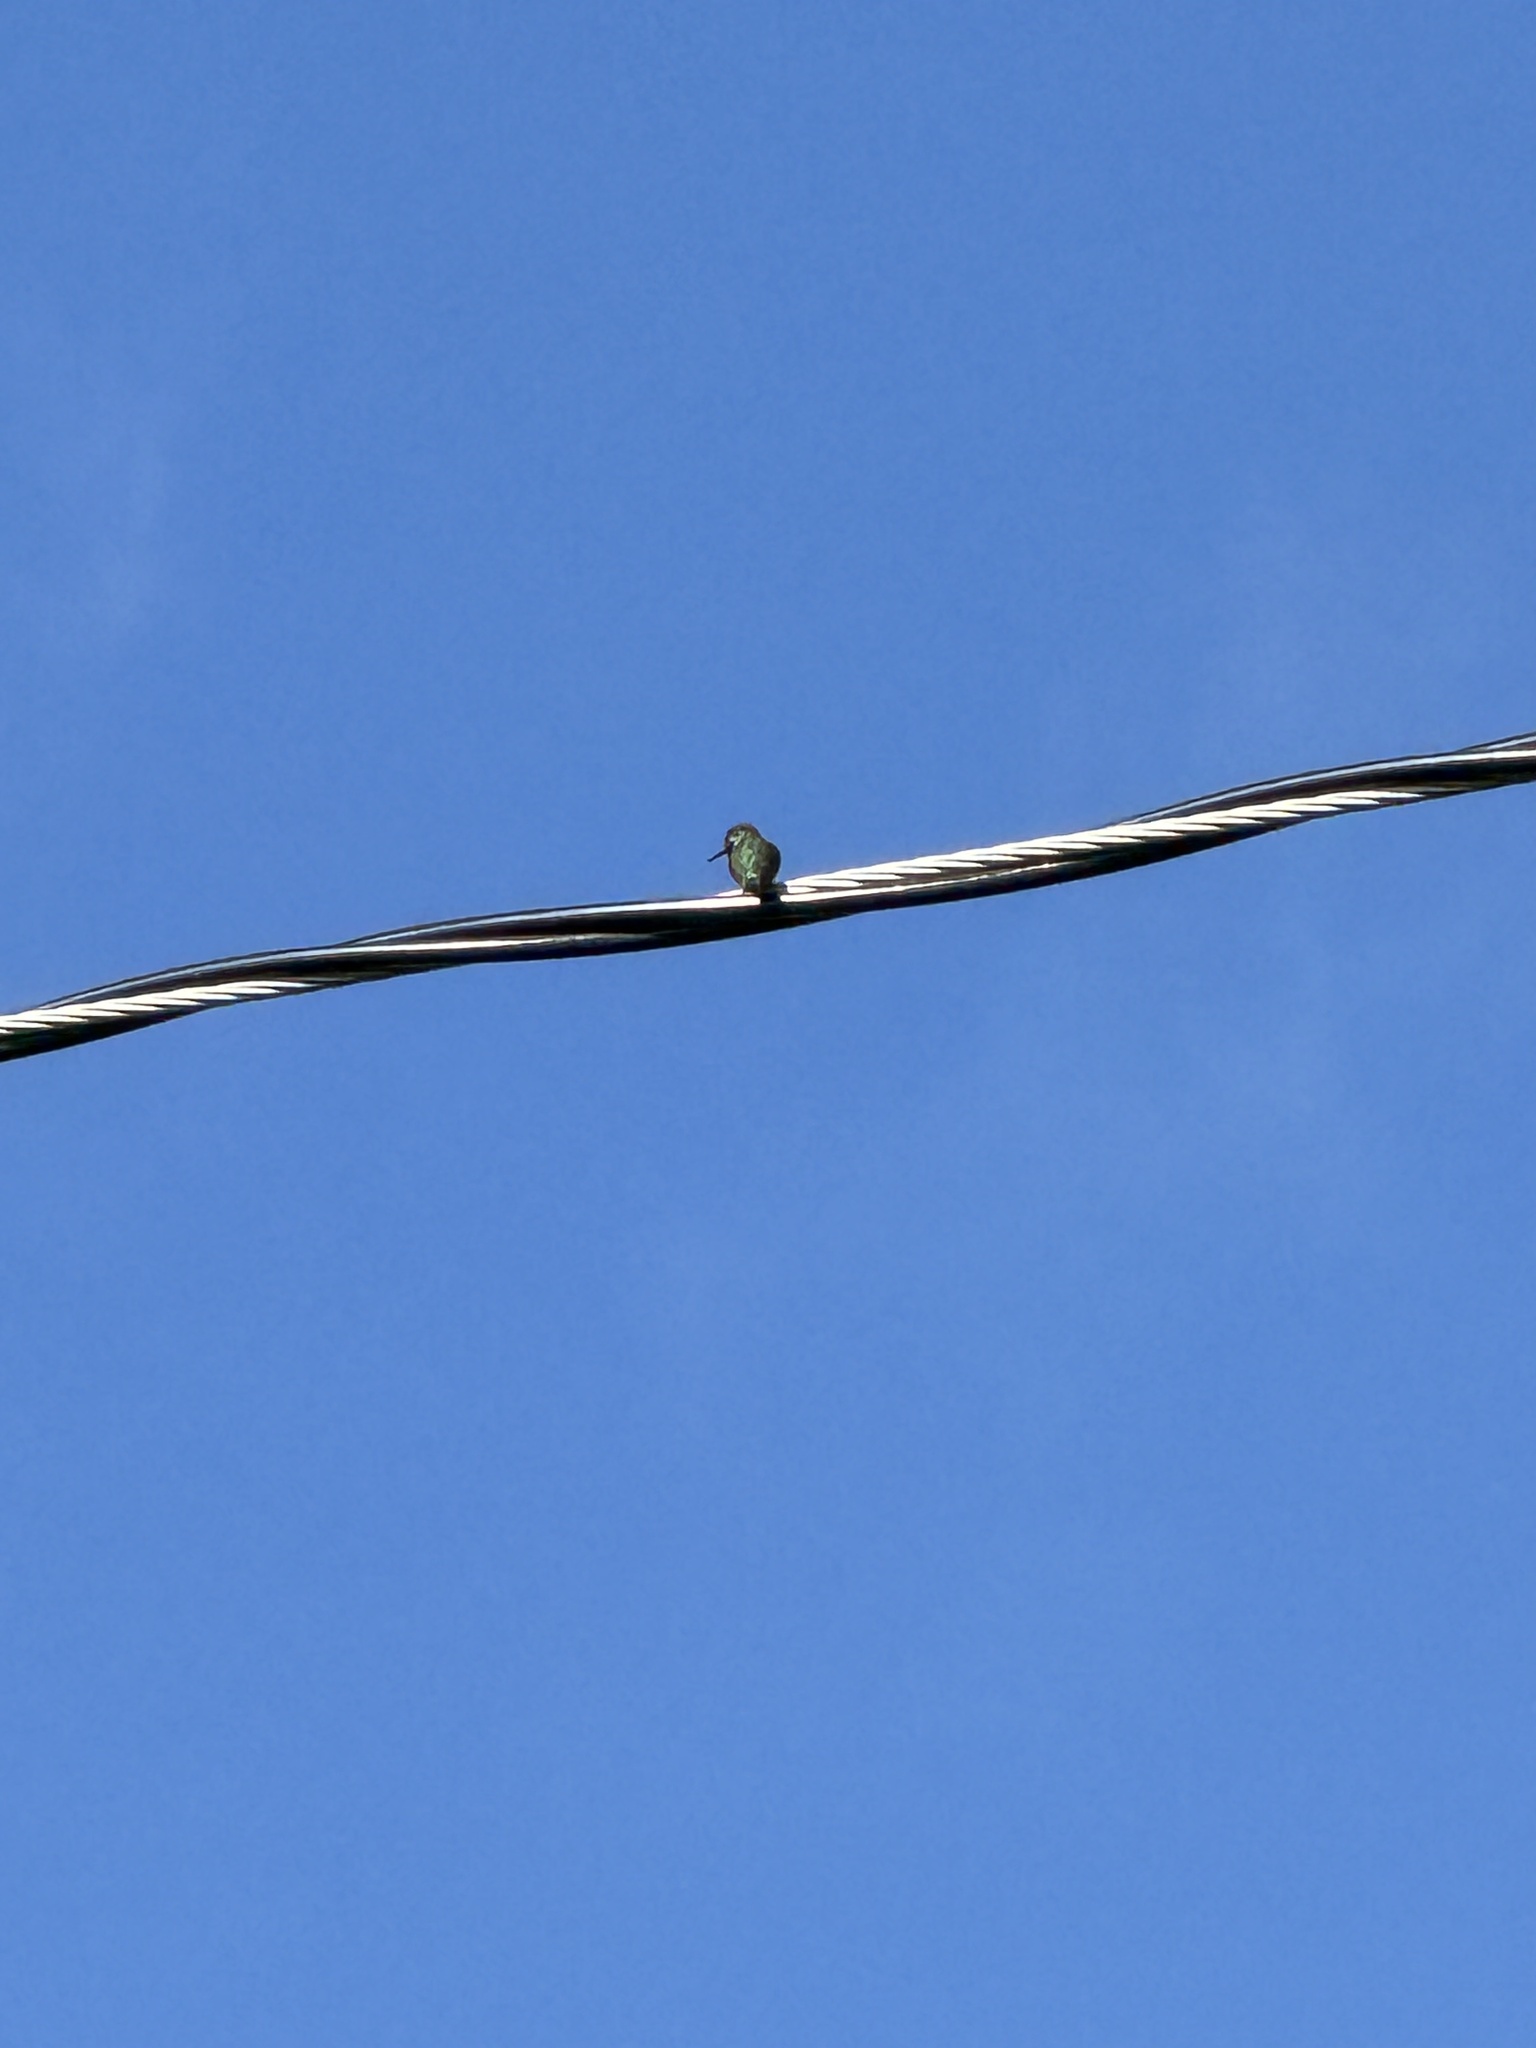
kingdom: Animalia
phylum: Chordata
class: Aves
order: Apodiformes
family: Trochilidae
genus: Calypte
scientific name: Calypte anna
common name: Anna's hummingbird
